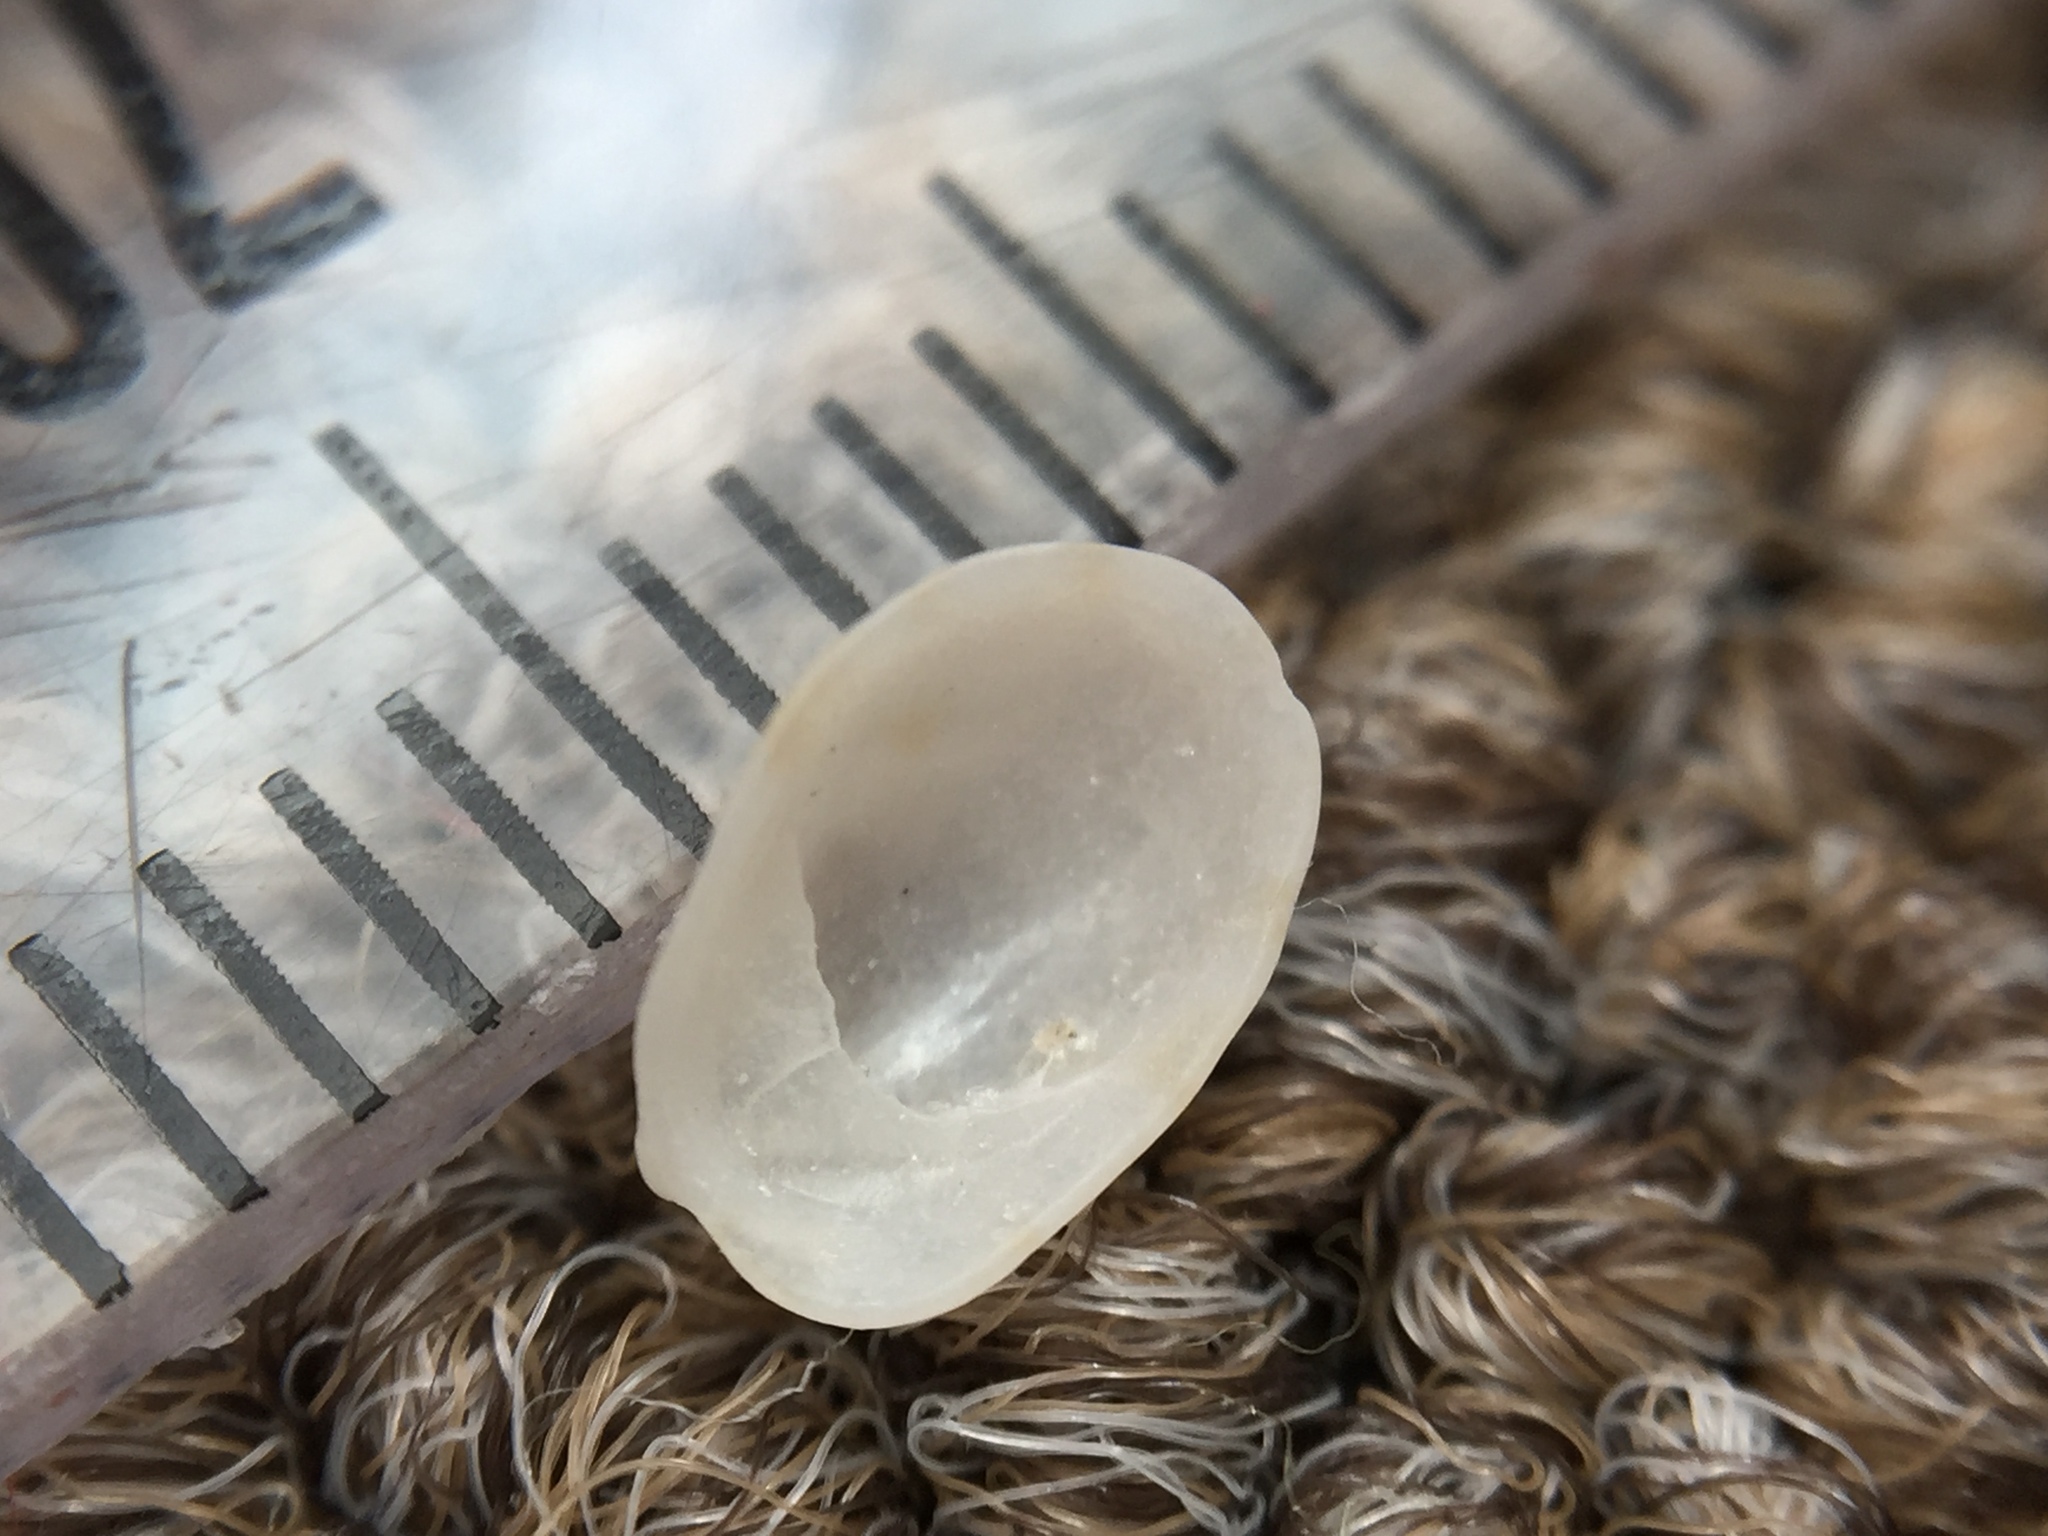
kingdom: Animalia
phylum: Mollusca
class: Gastropoda
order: Littorinimorpha
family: Calyptraeidae
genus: Maoricrypta
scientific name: Maoricrypta monoxyla
